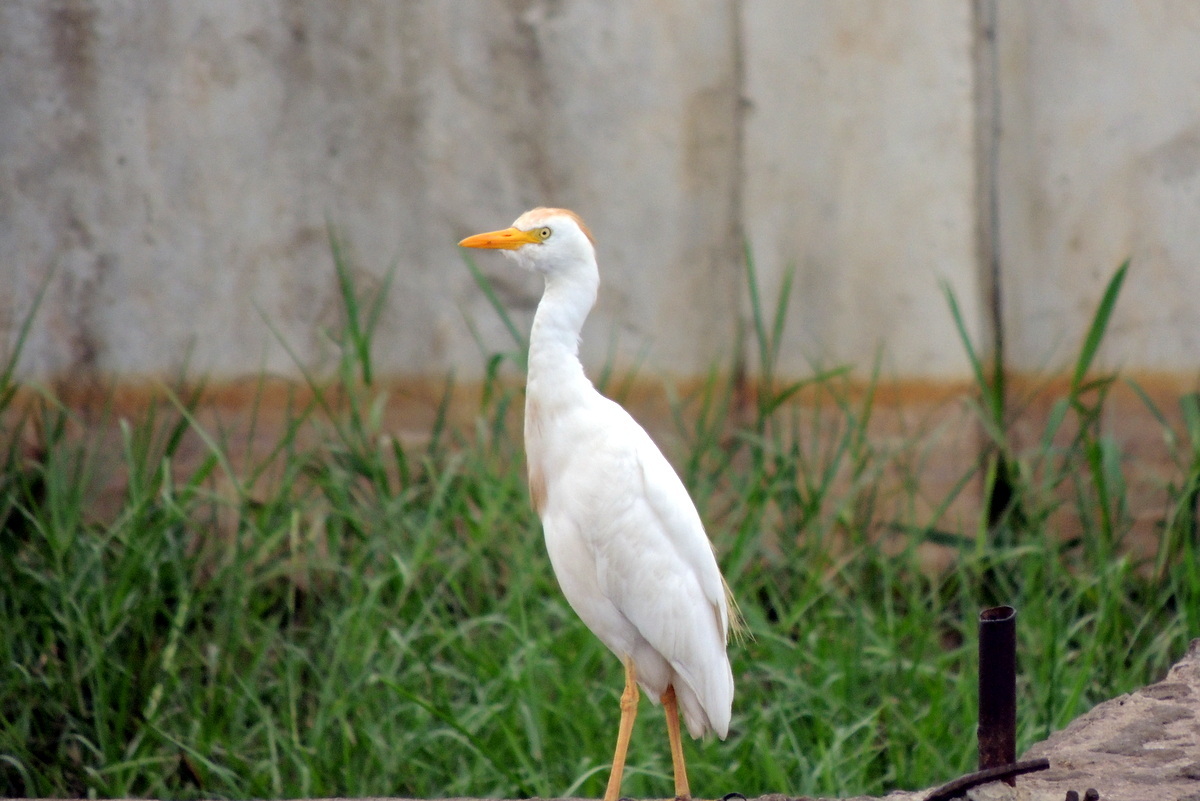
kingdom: Animalia
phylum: Chordata
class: Aves
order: Pelecaniformes
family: Ardeidae
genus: Bubulcus
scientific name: Bubulcus ibis
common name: Cattle egret
